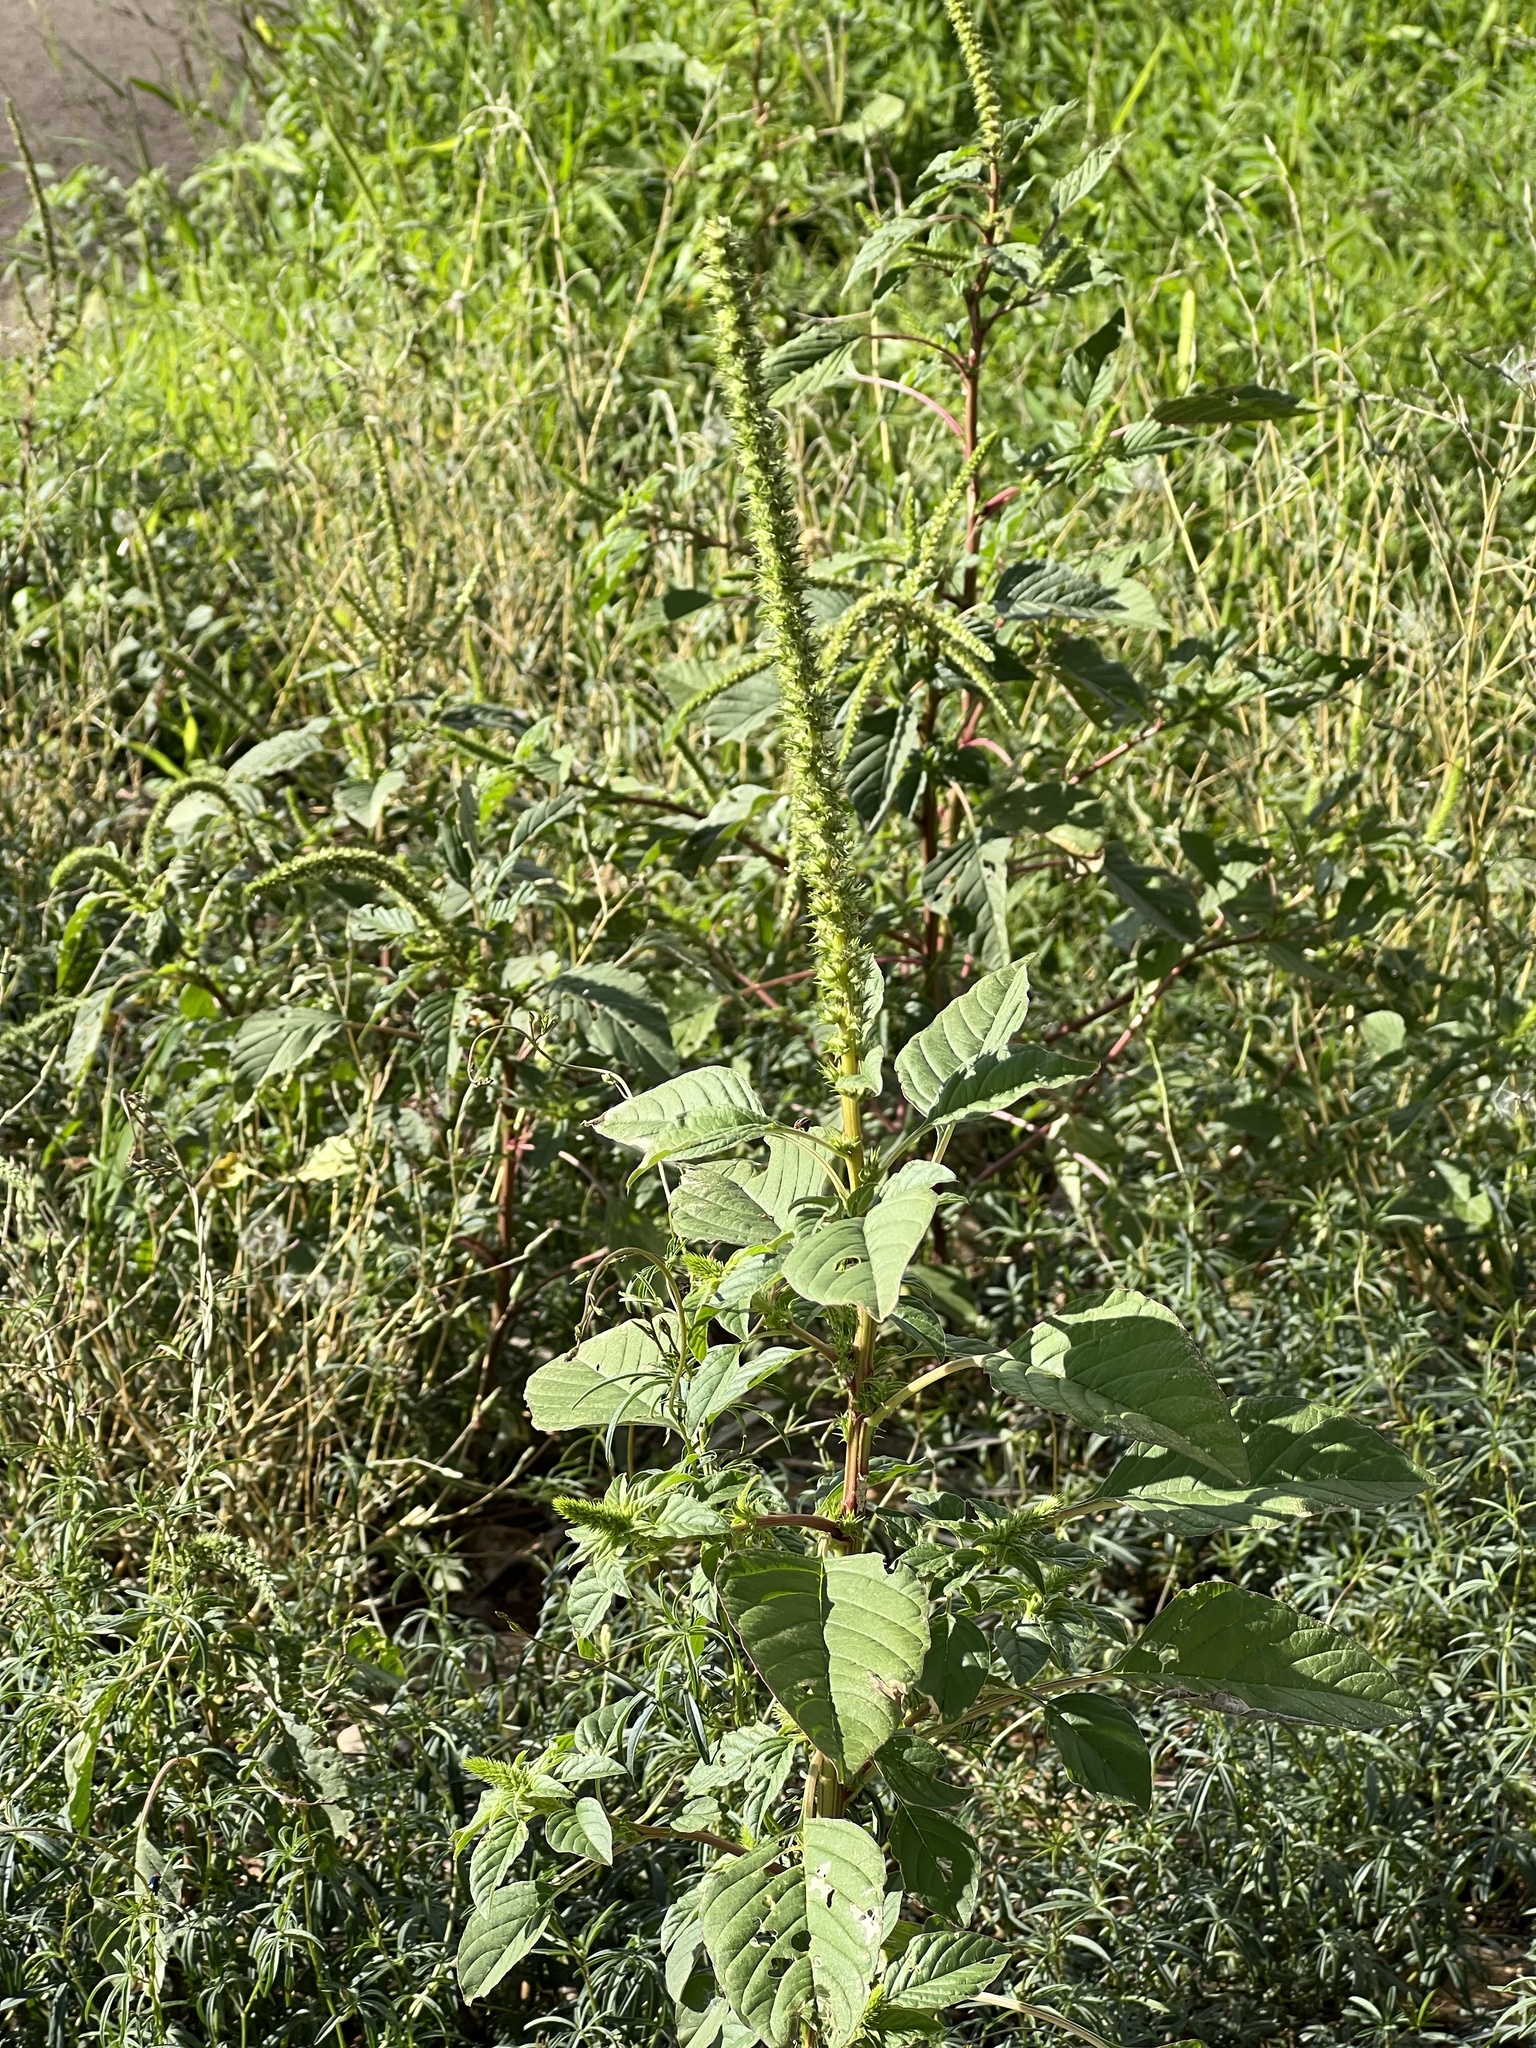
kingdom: Plantae
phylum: Tracheophyta
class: Magnoliopsida
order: Caryophyllales
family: Amaranthaceae
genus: Amaranthus
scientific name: Amaranthus palmeri
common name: Dioecious amaranth
